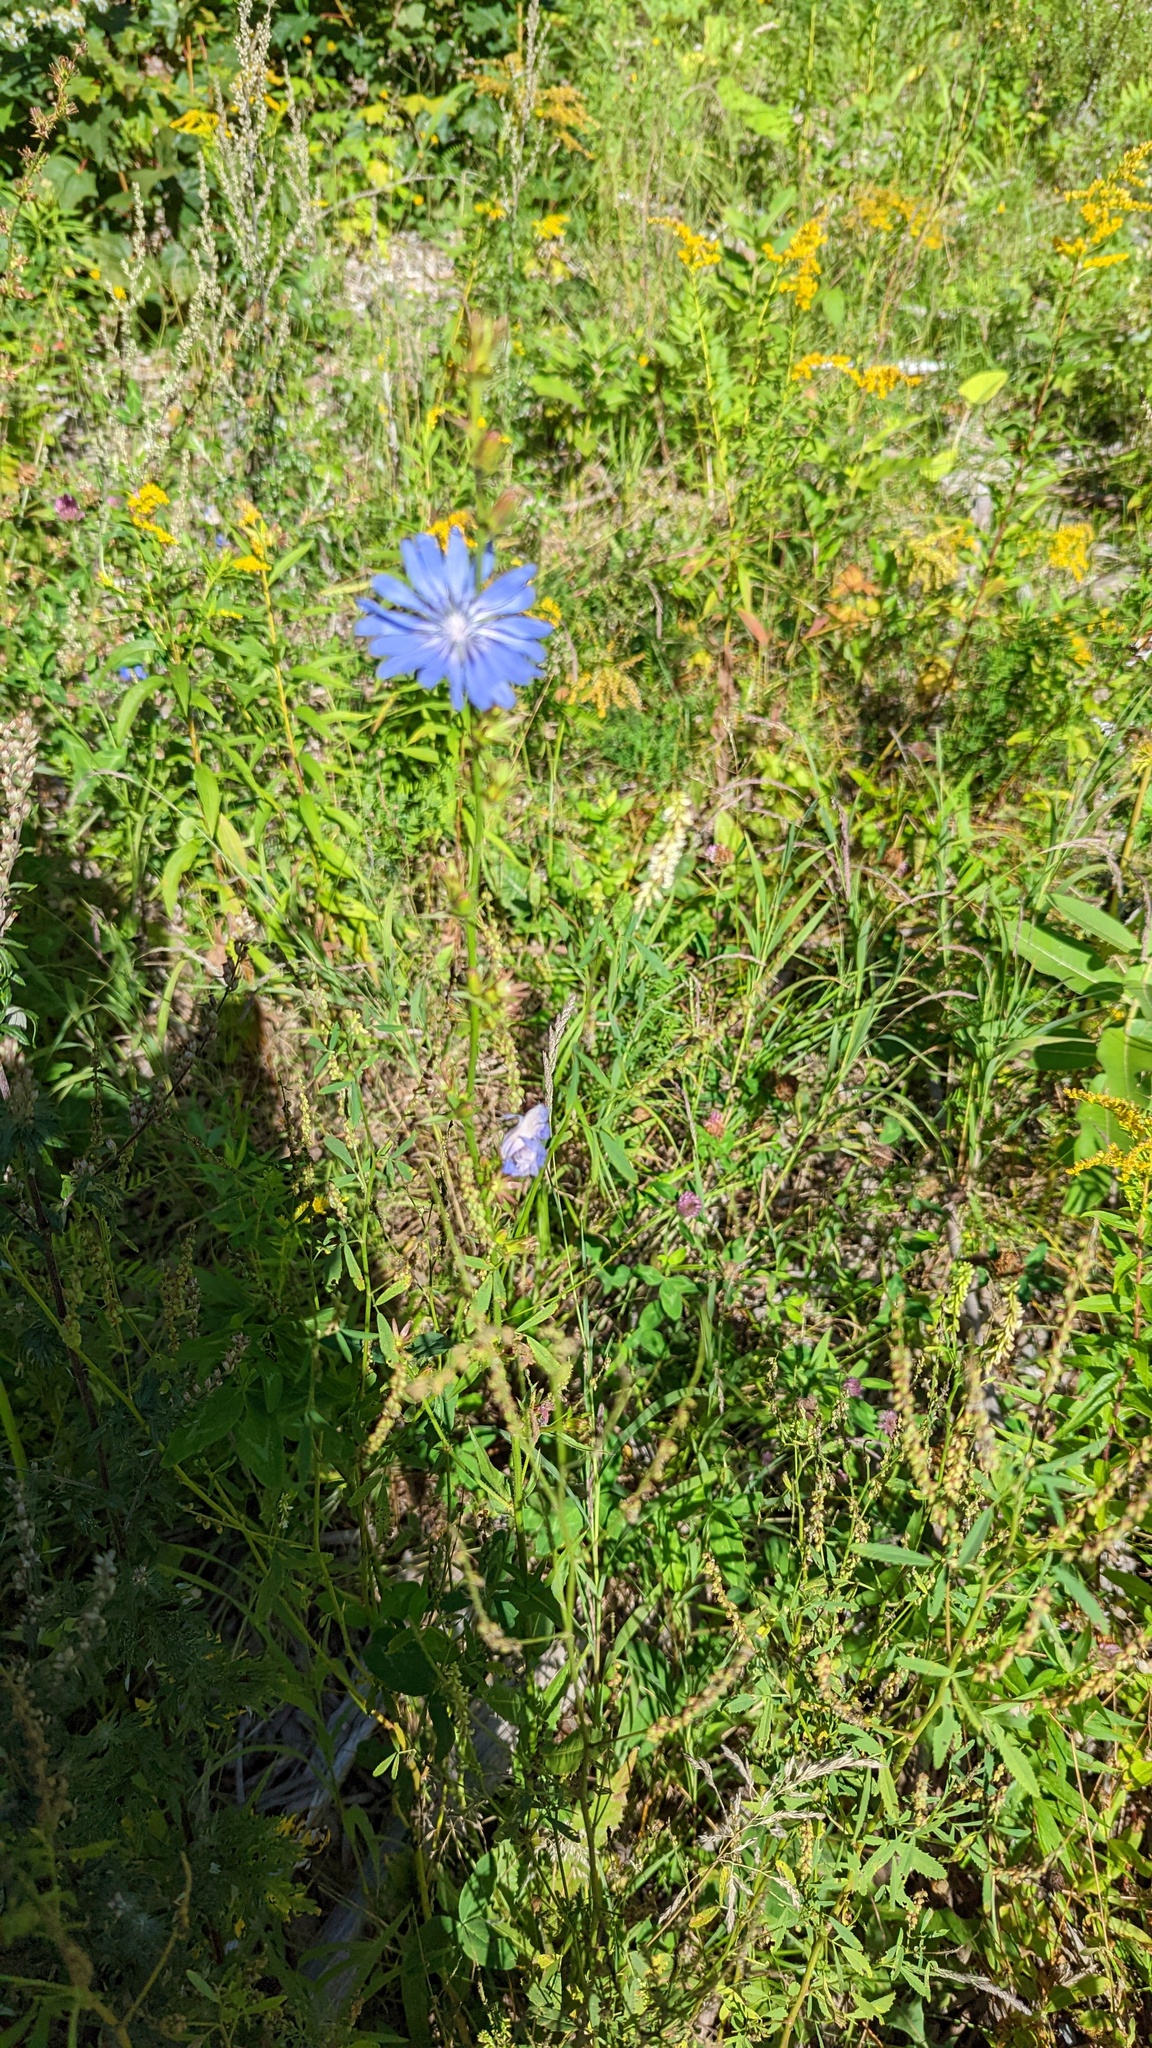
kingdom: Plantae
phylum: Tracheophyta
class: Magnoliopsida
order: Asterales
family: Asteraceae
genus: Cichorium
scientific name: Cichorium intybus
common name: Chicory
